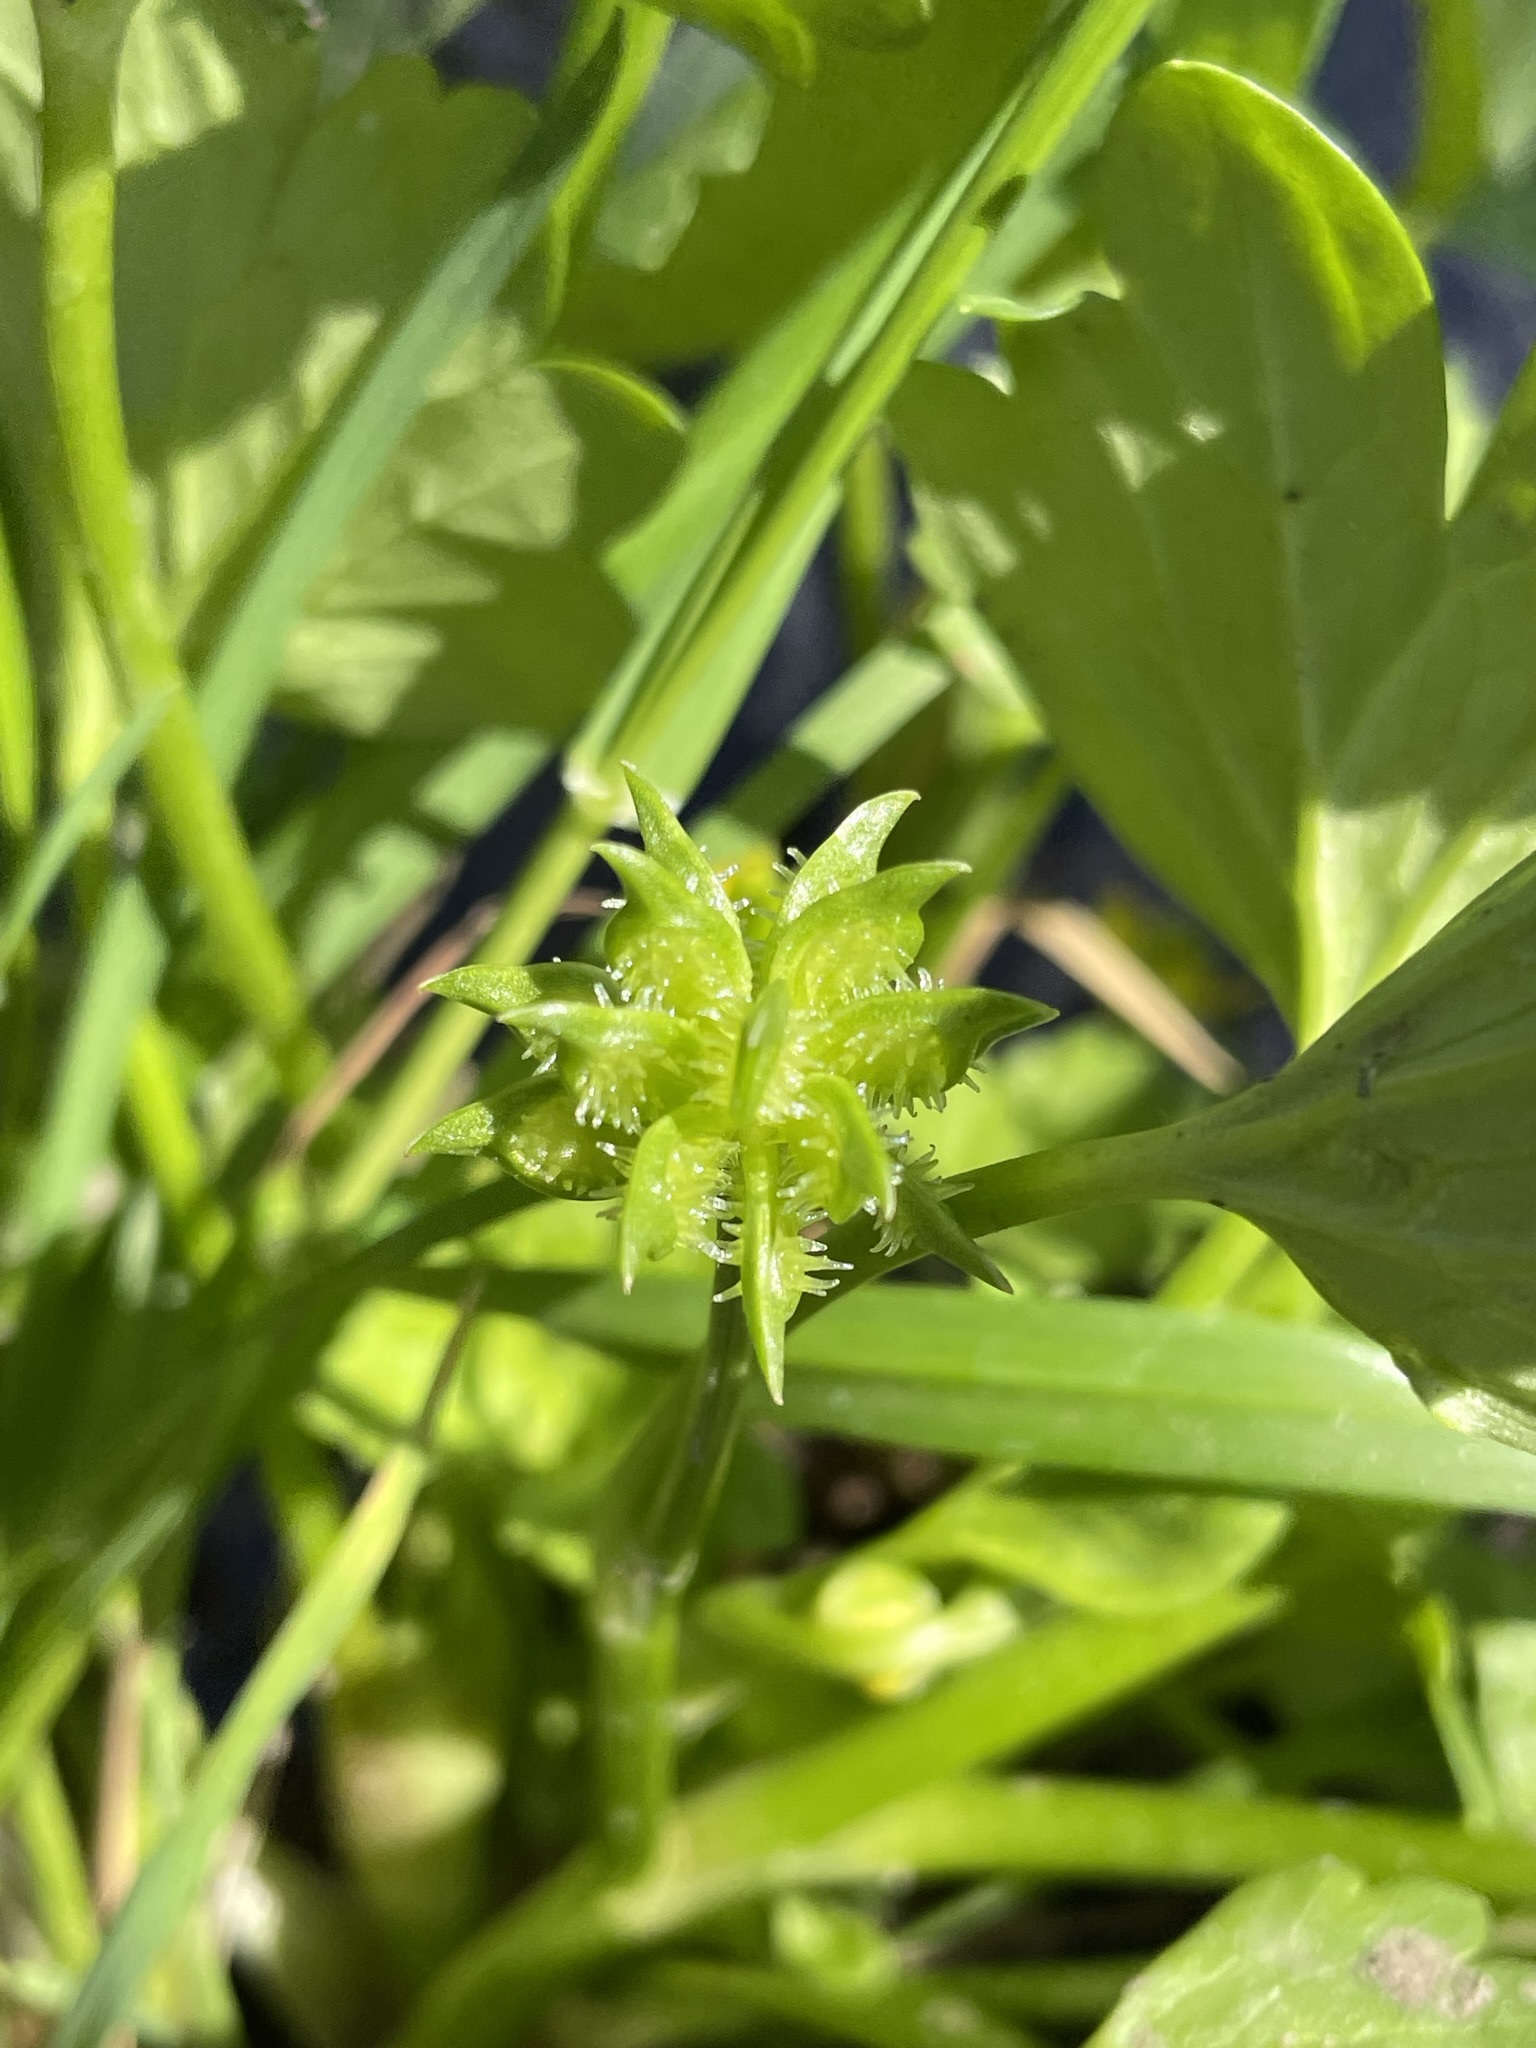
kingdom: Plantae
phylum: Tracheophyta
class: Magnoliopsida
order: Ranunculales
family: Ranunculaceae
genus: Ranunculus
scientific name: Ranunculus muricatus
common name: Rough-fruited buttercup
